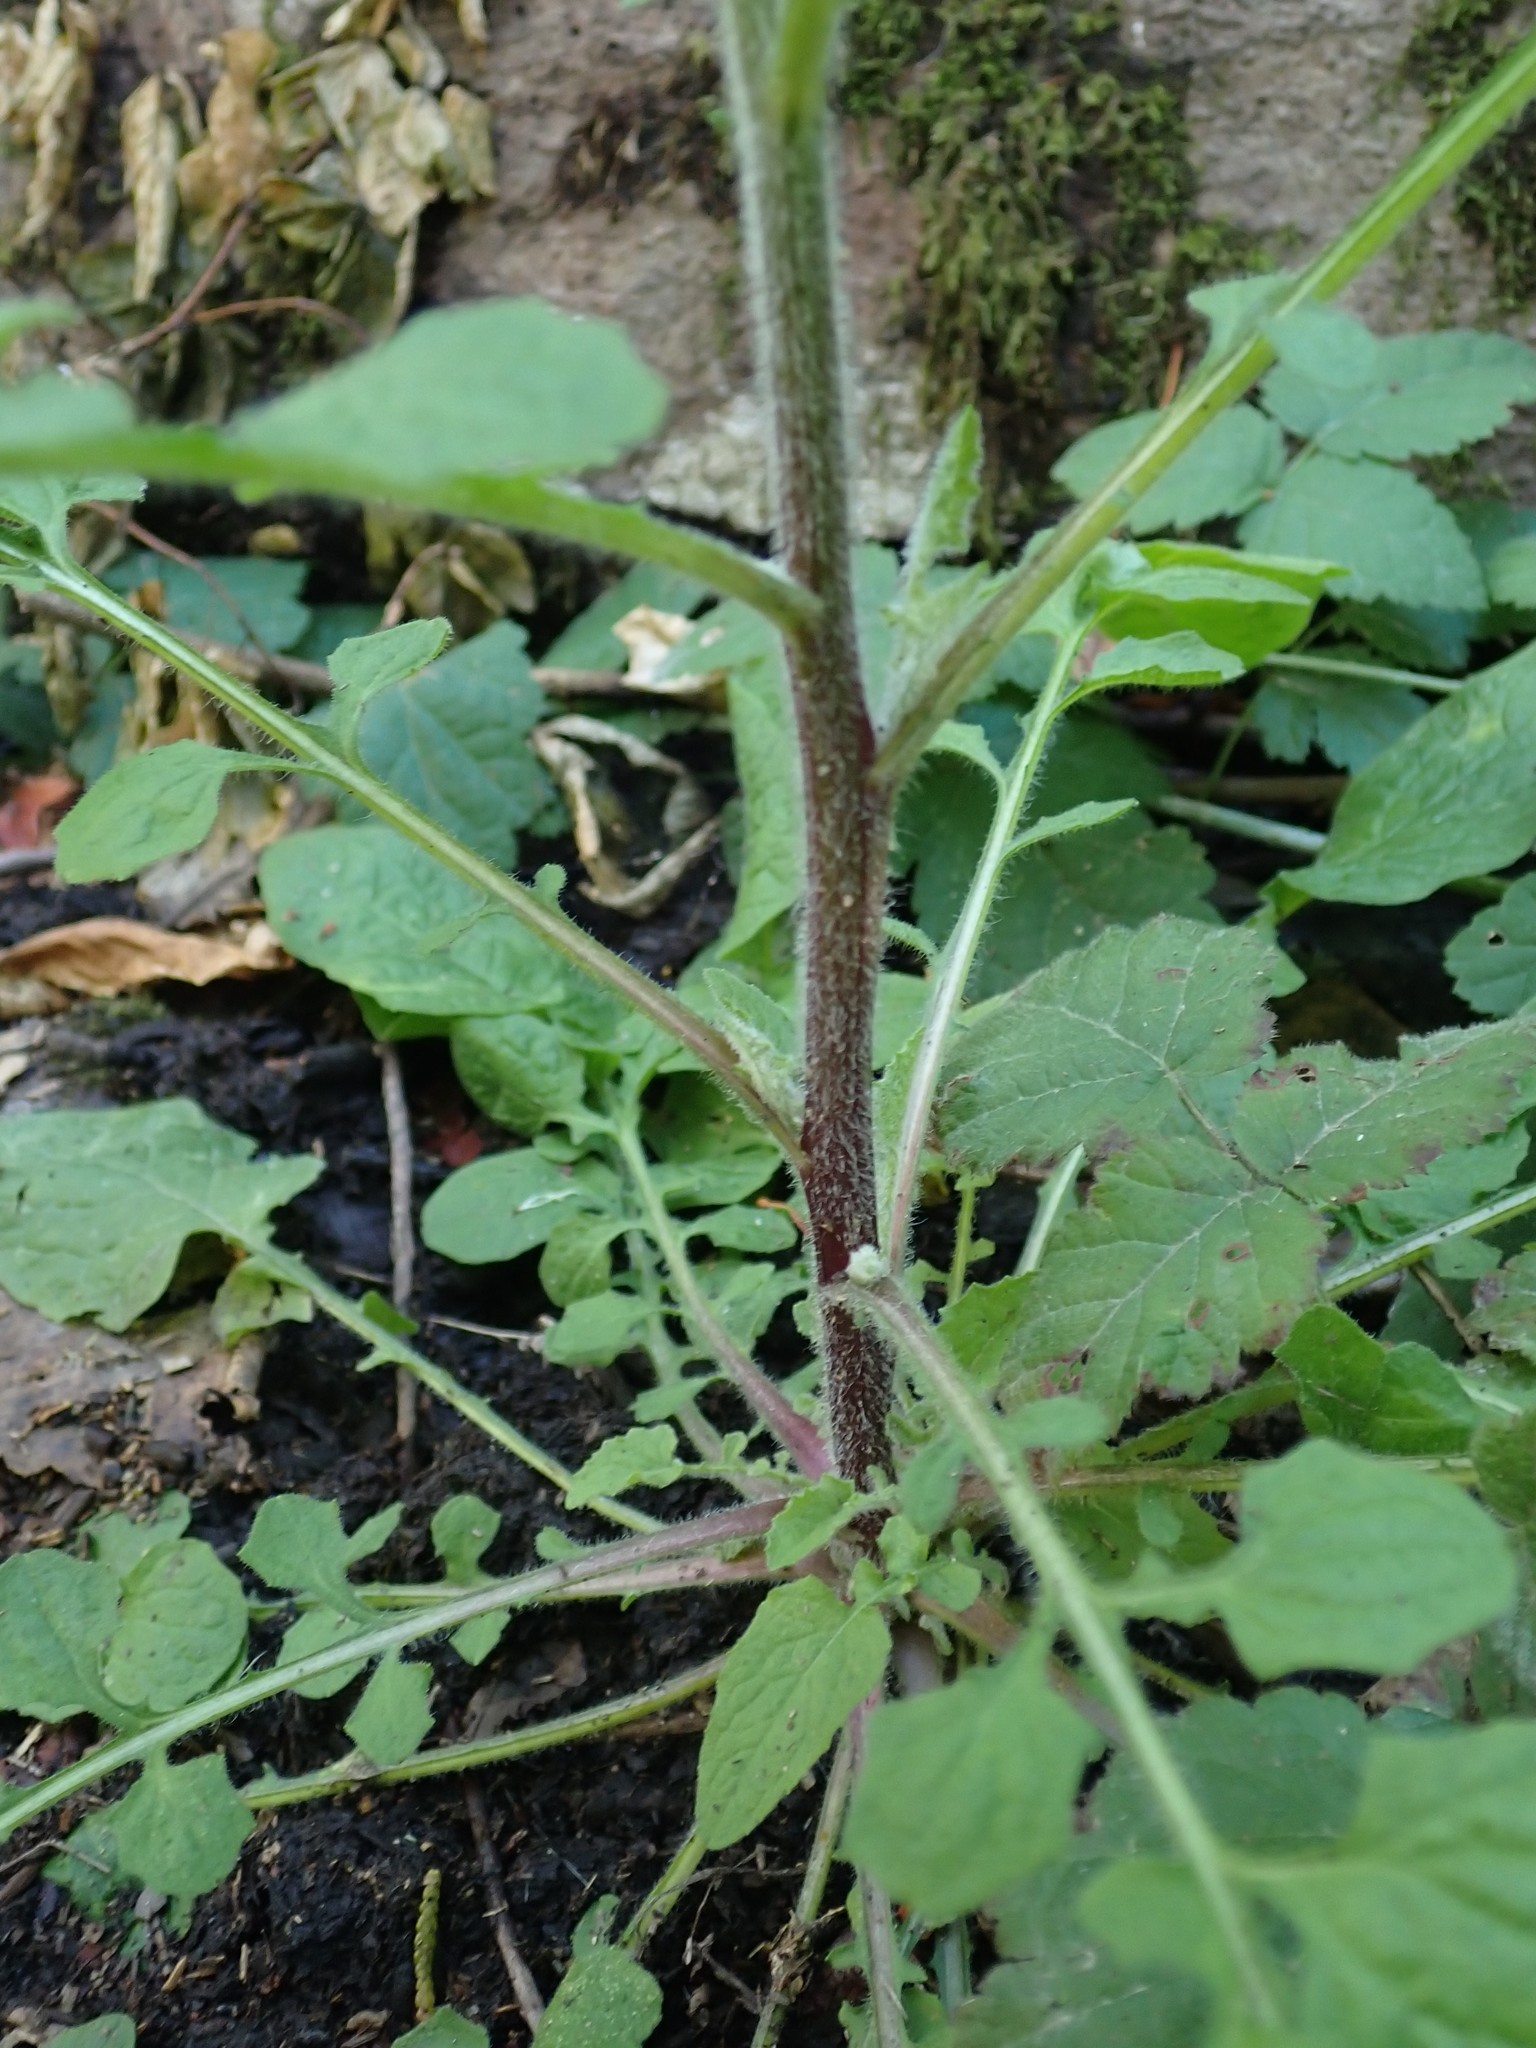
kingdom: Plantae
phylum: Tracheophyta
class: Magnoliopsida
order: Asterales
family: Asteraceae
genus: Lapsana
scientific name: Lapsana communis
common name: Nipplewort
